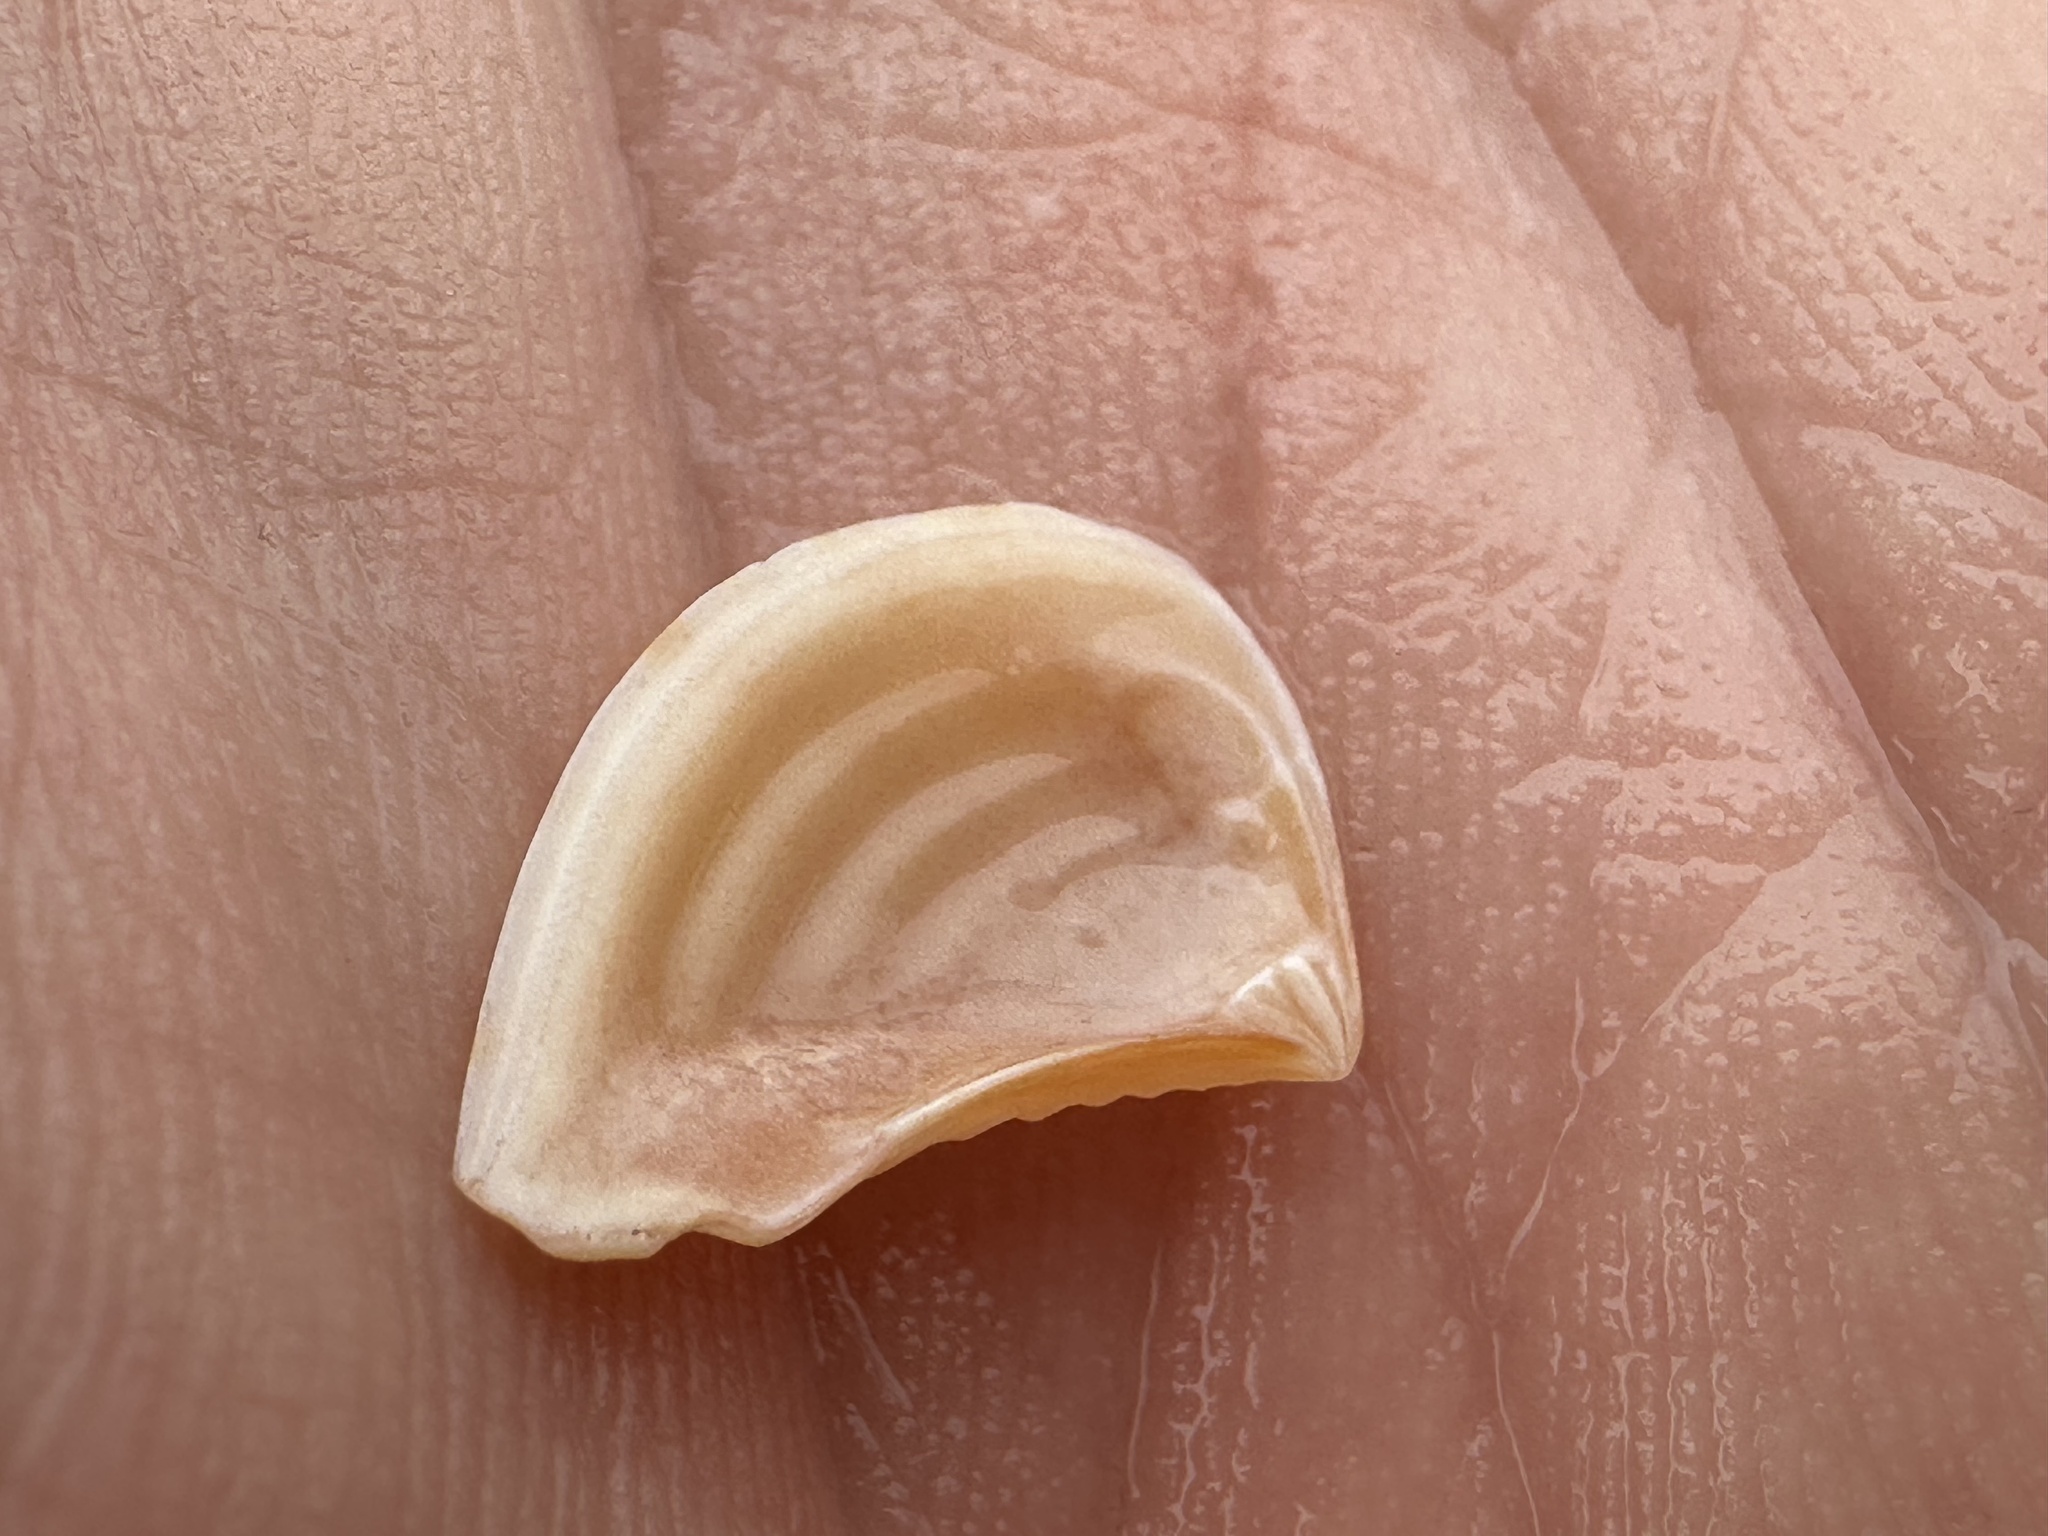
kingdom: Animalia
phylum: Mollusca
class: Bivalvia
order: Carditida
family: Crassatellidae
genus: Bathytormus
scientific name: Bathytormus radiatus
